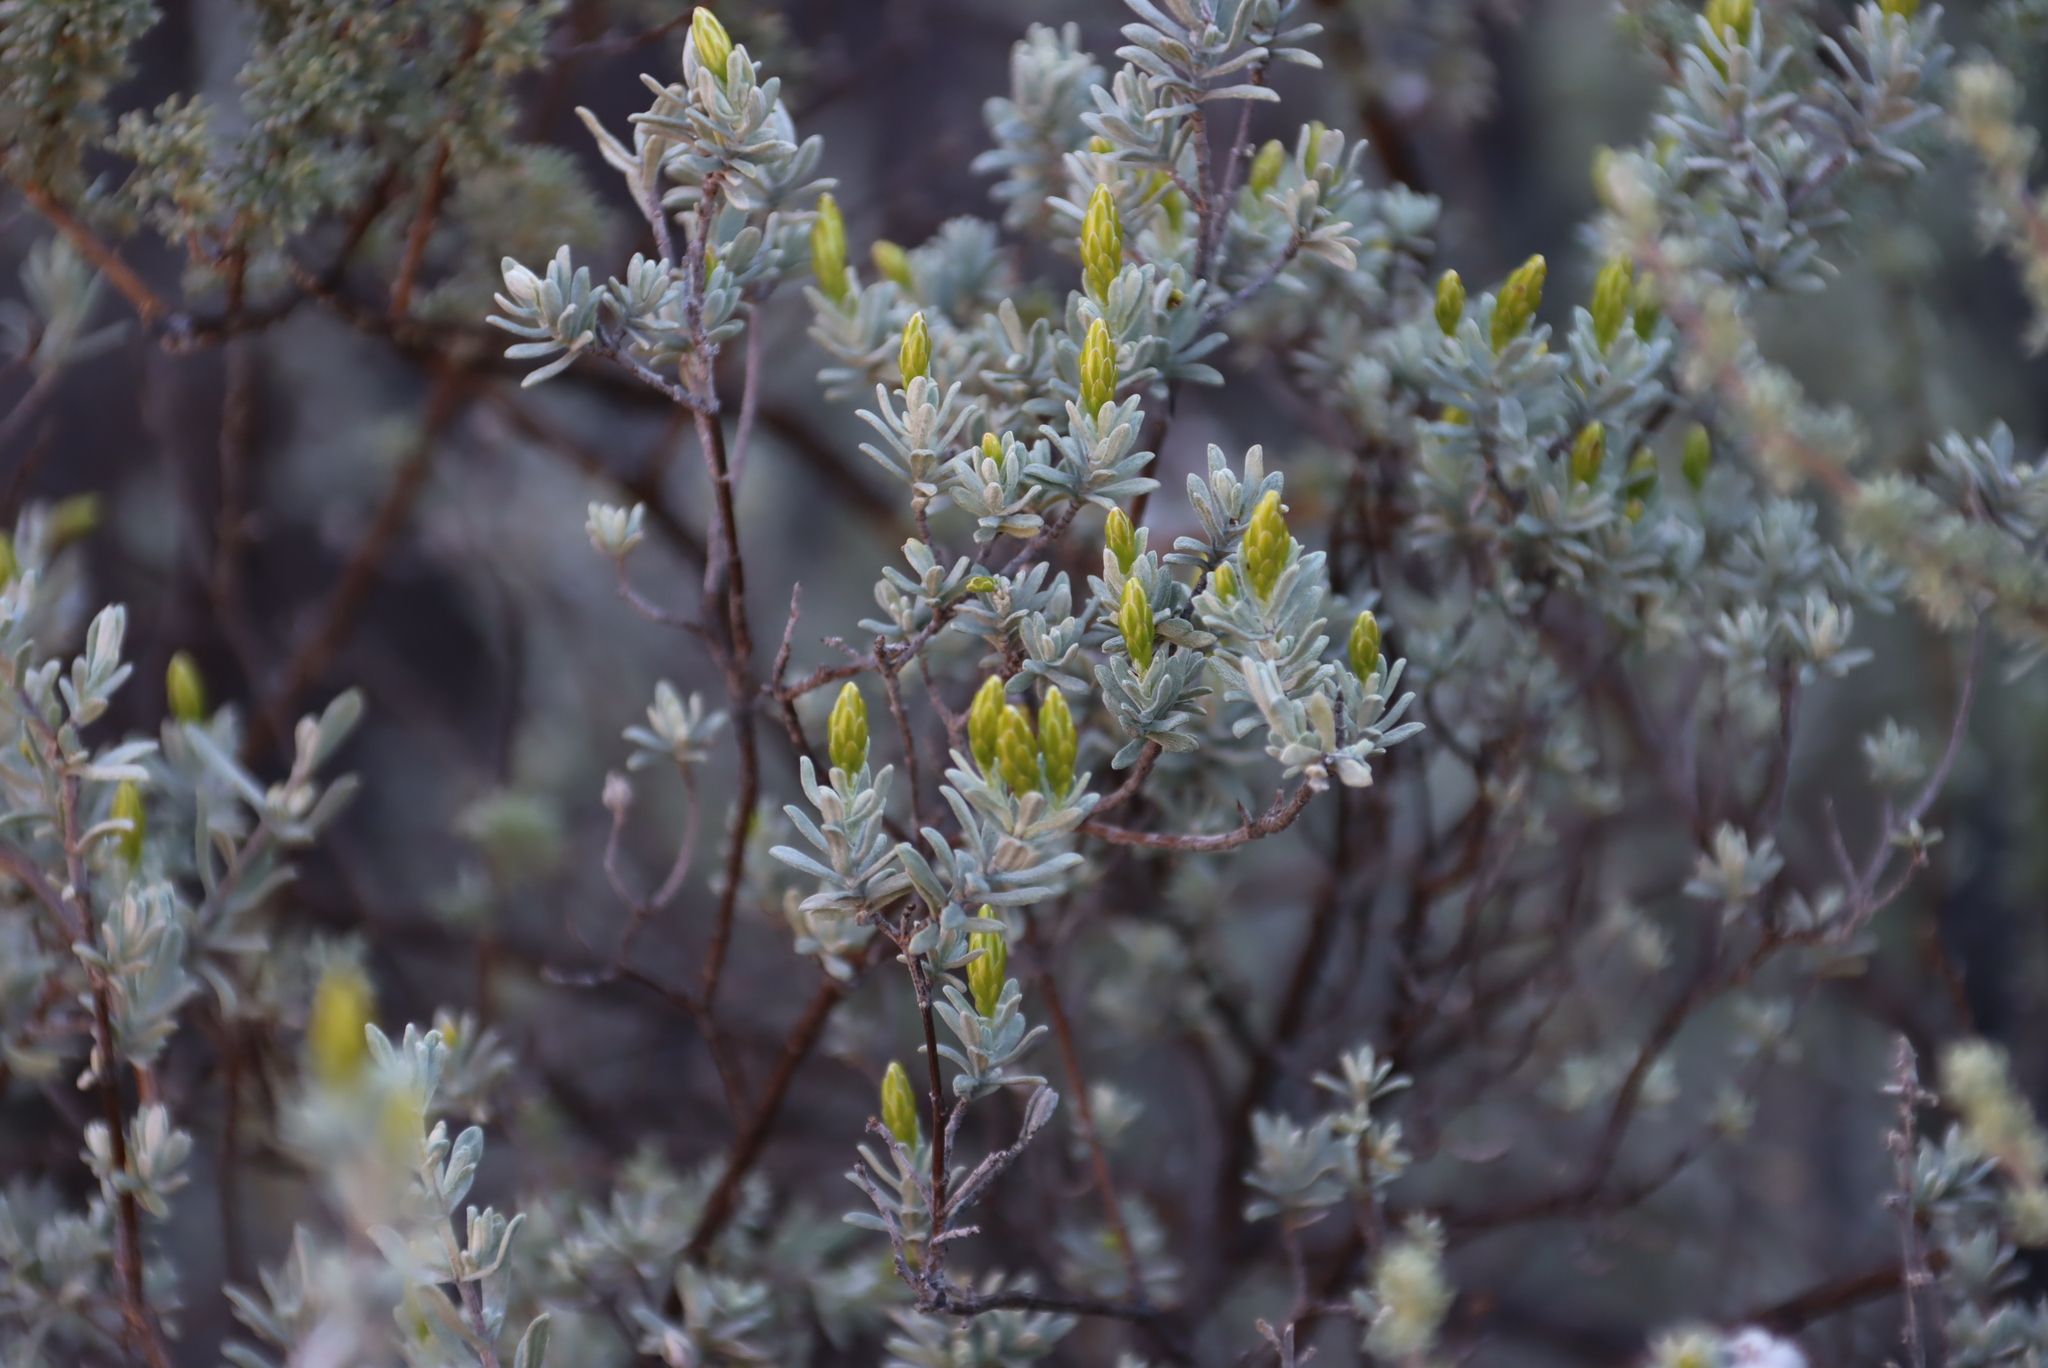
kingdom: Plantae
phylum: Tracheophyta
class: Magnoliopsida
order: Asterales
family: Asteraceae
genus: Pteronia
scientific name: Pteronia incana
